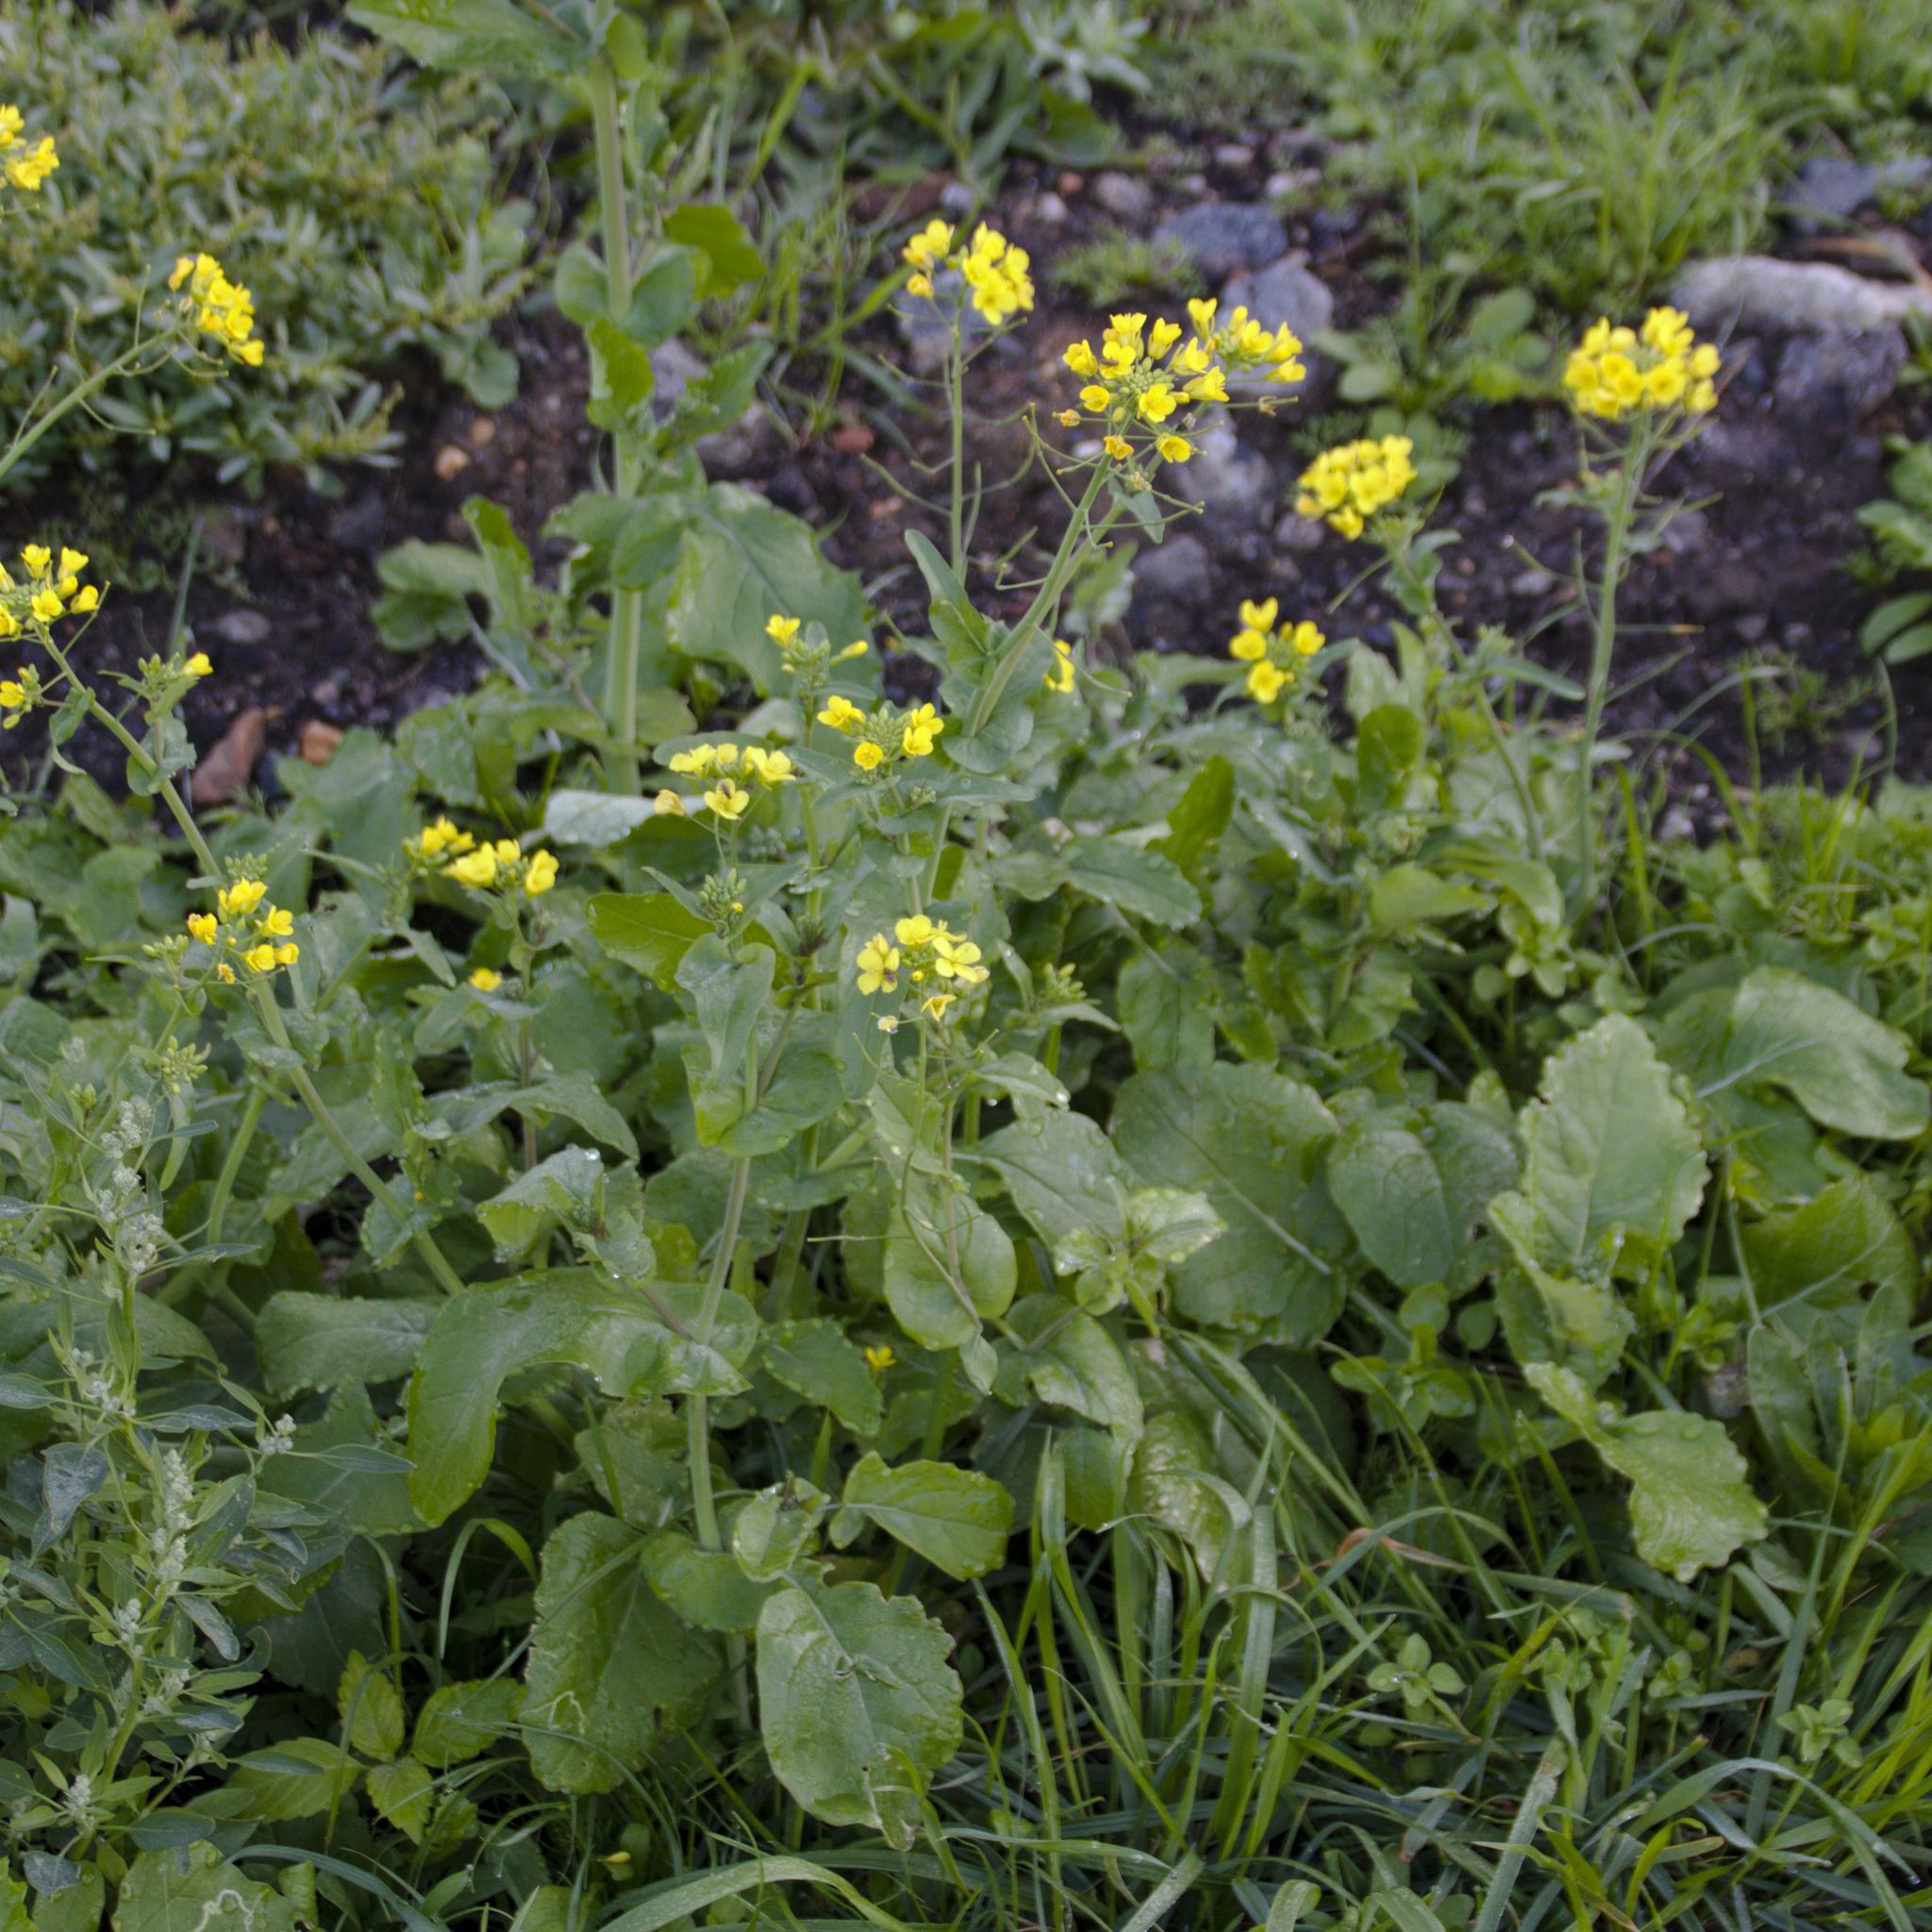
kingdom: Plantae
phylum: Tracheophyta
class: Magnoliopsida
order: Brassicales
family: Brassicaceae
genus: Brassica
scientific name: Brassica rapa
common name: Field mustard
